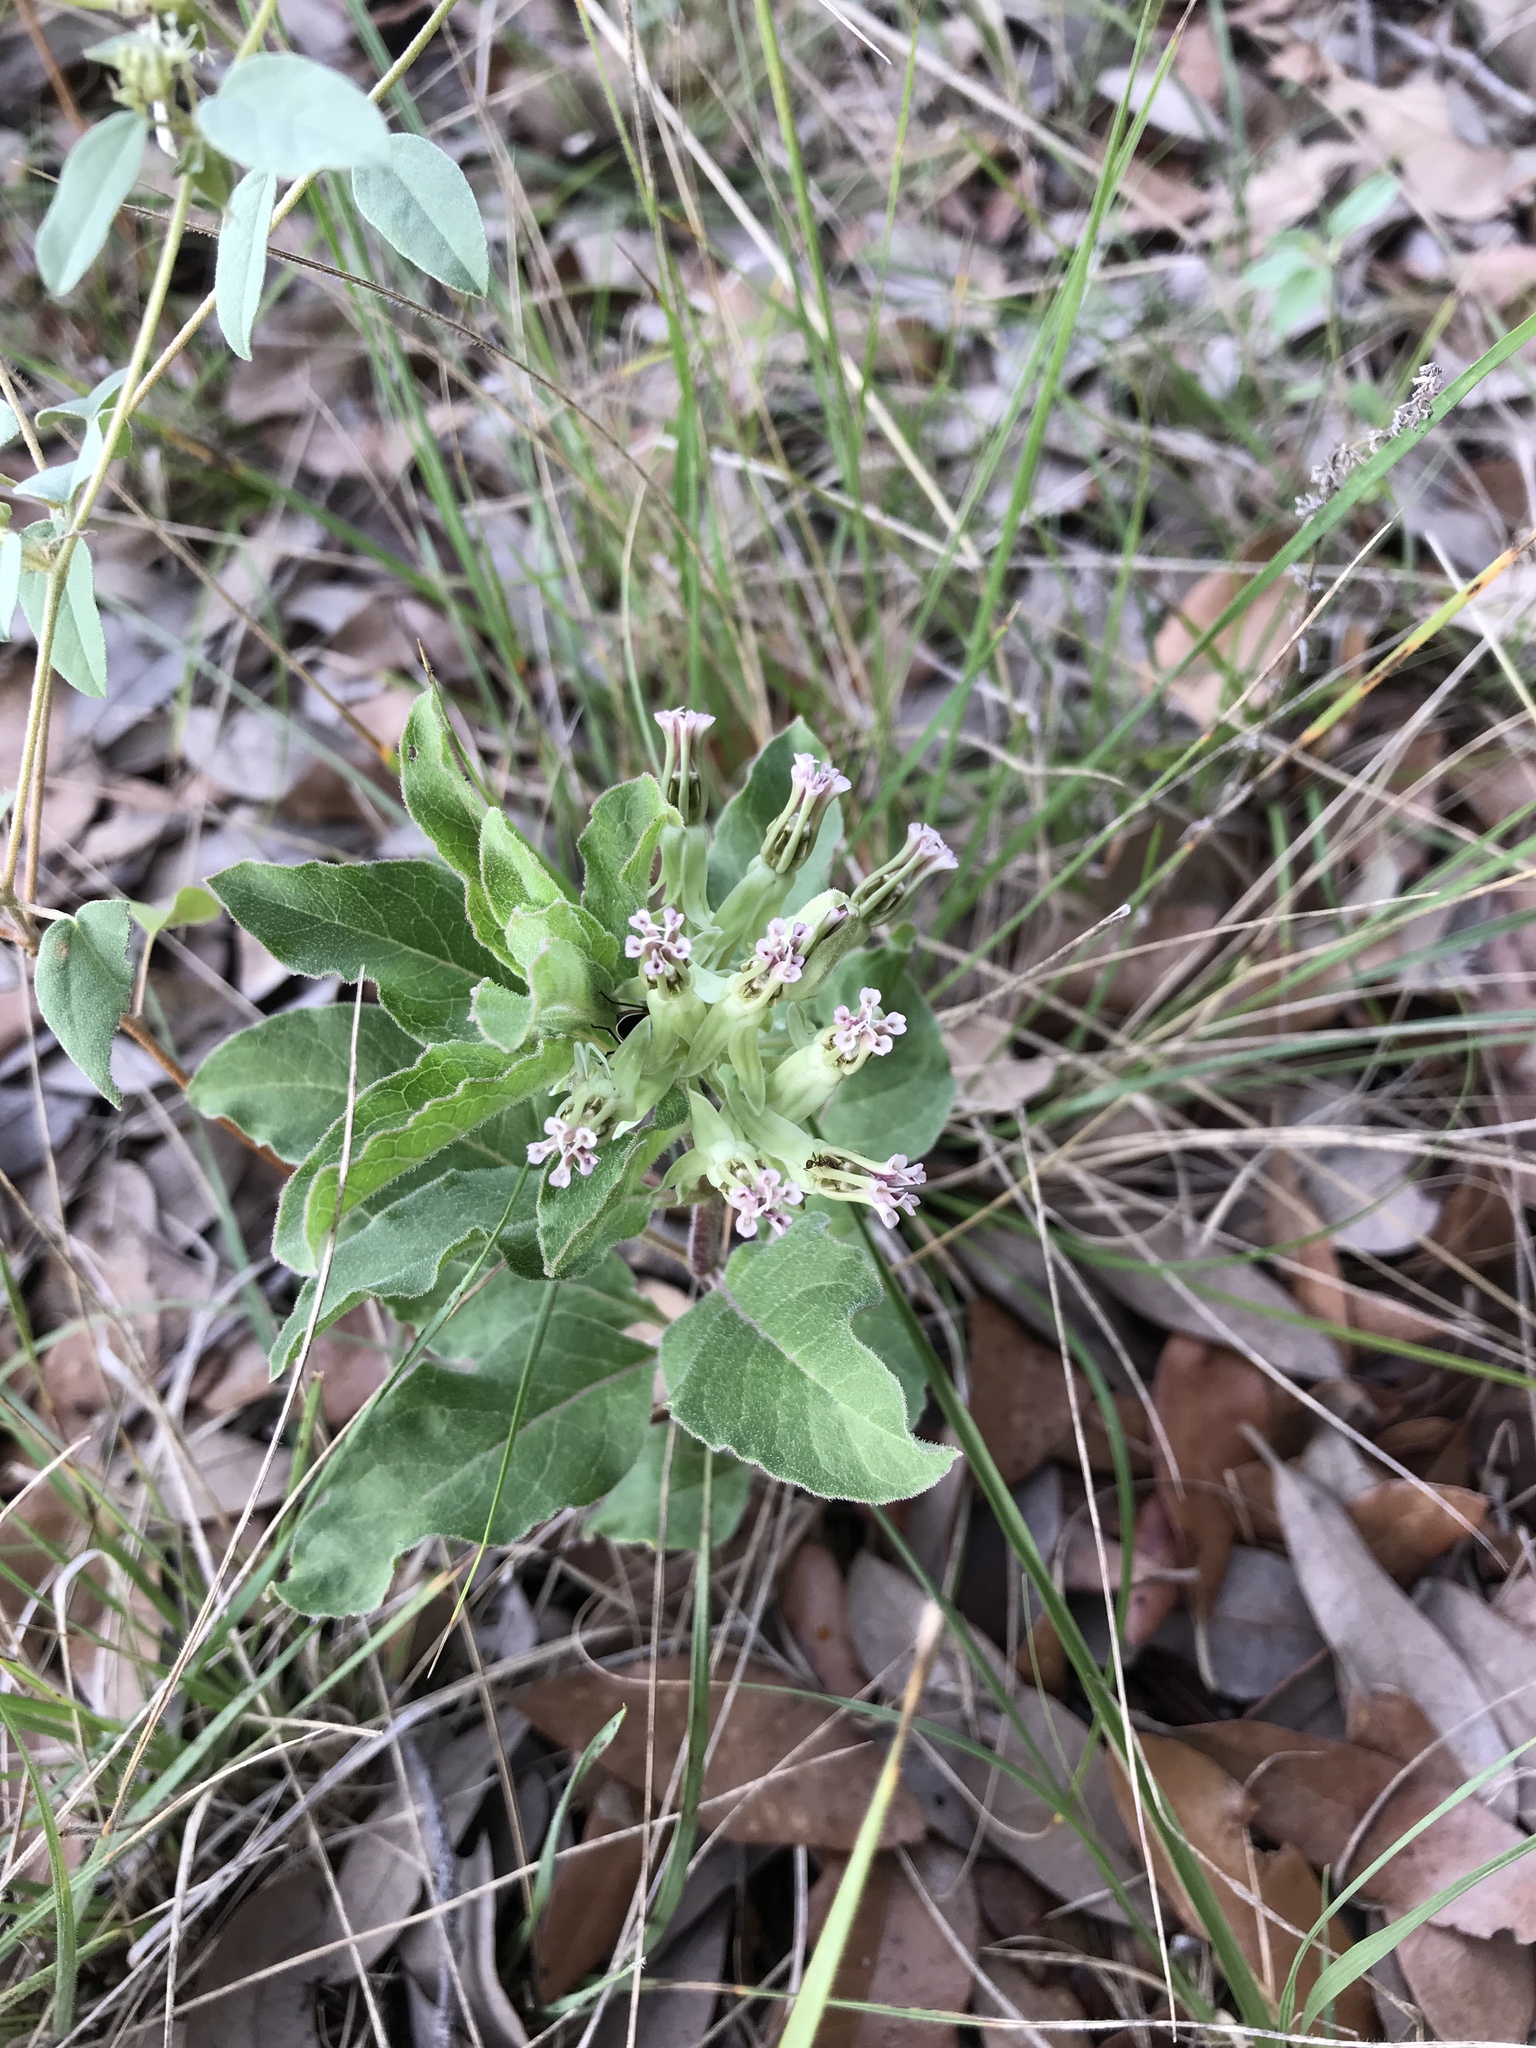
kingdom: Plantae
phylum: Tracheophyta
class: Magnoliopsida
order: Gentianales
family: Apocynaceae
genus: Asclepias
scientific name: Asclepias oenotheroides
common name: Zizotes milkweed
